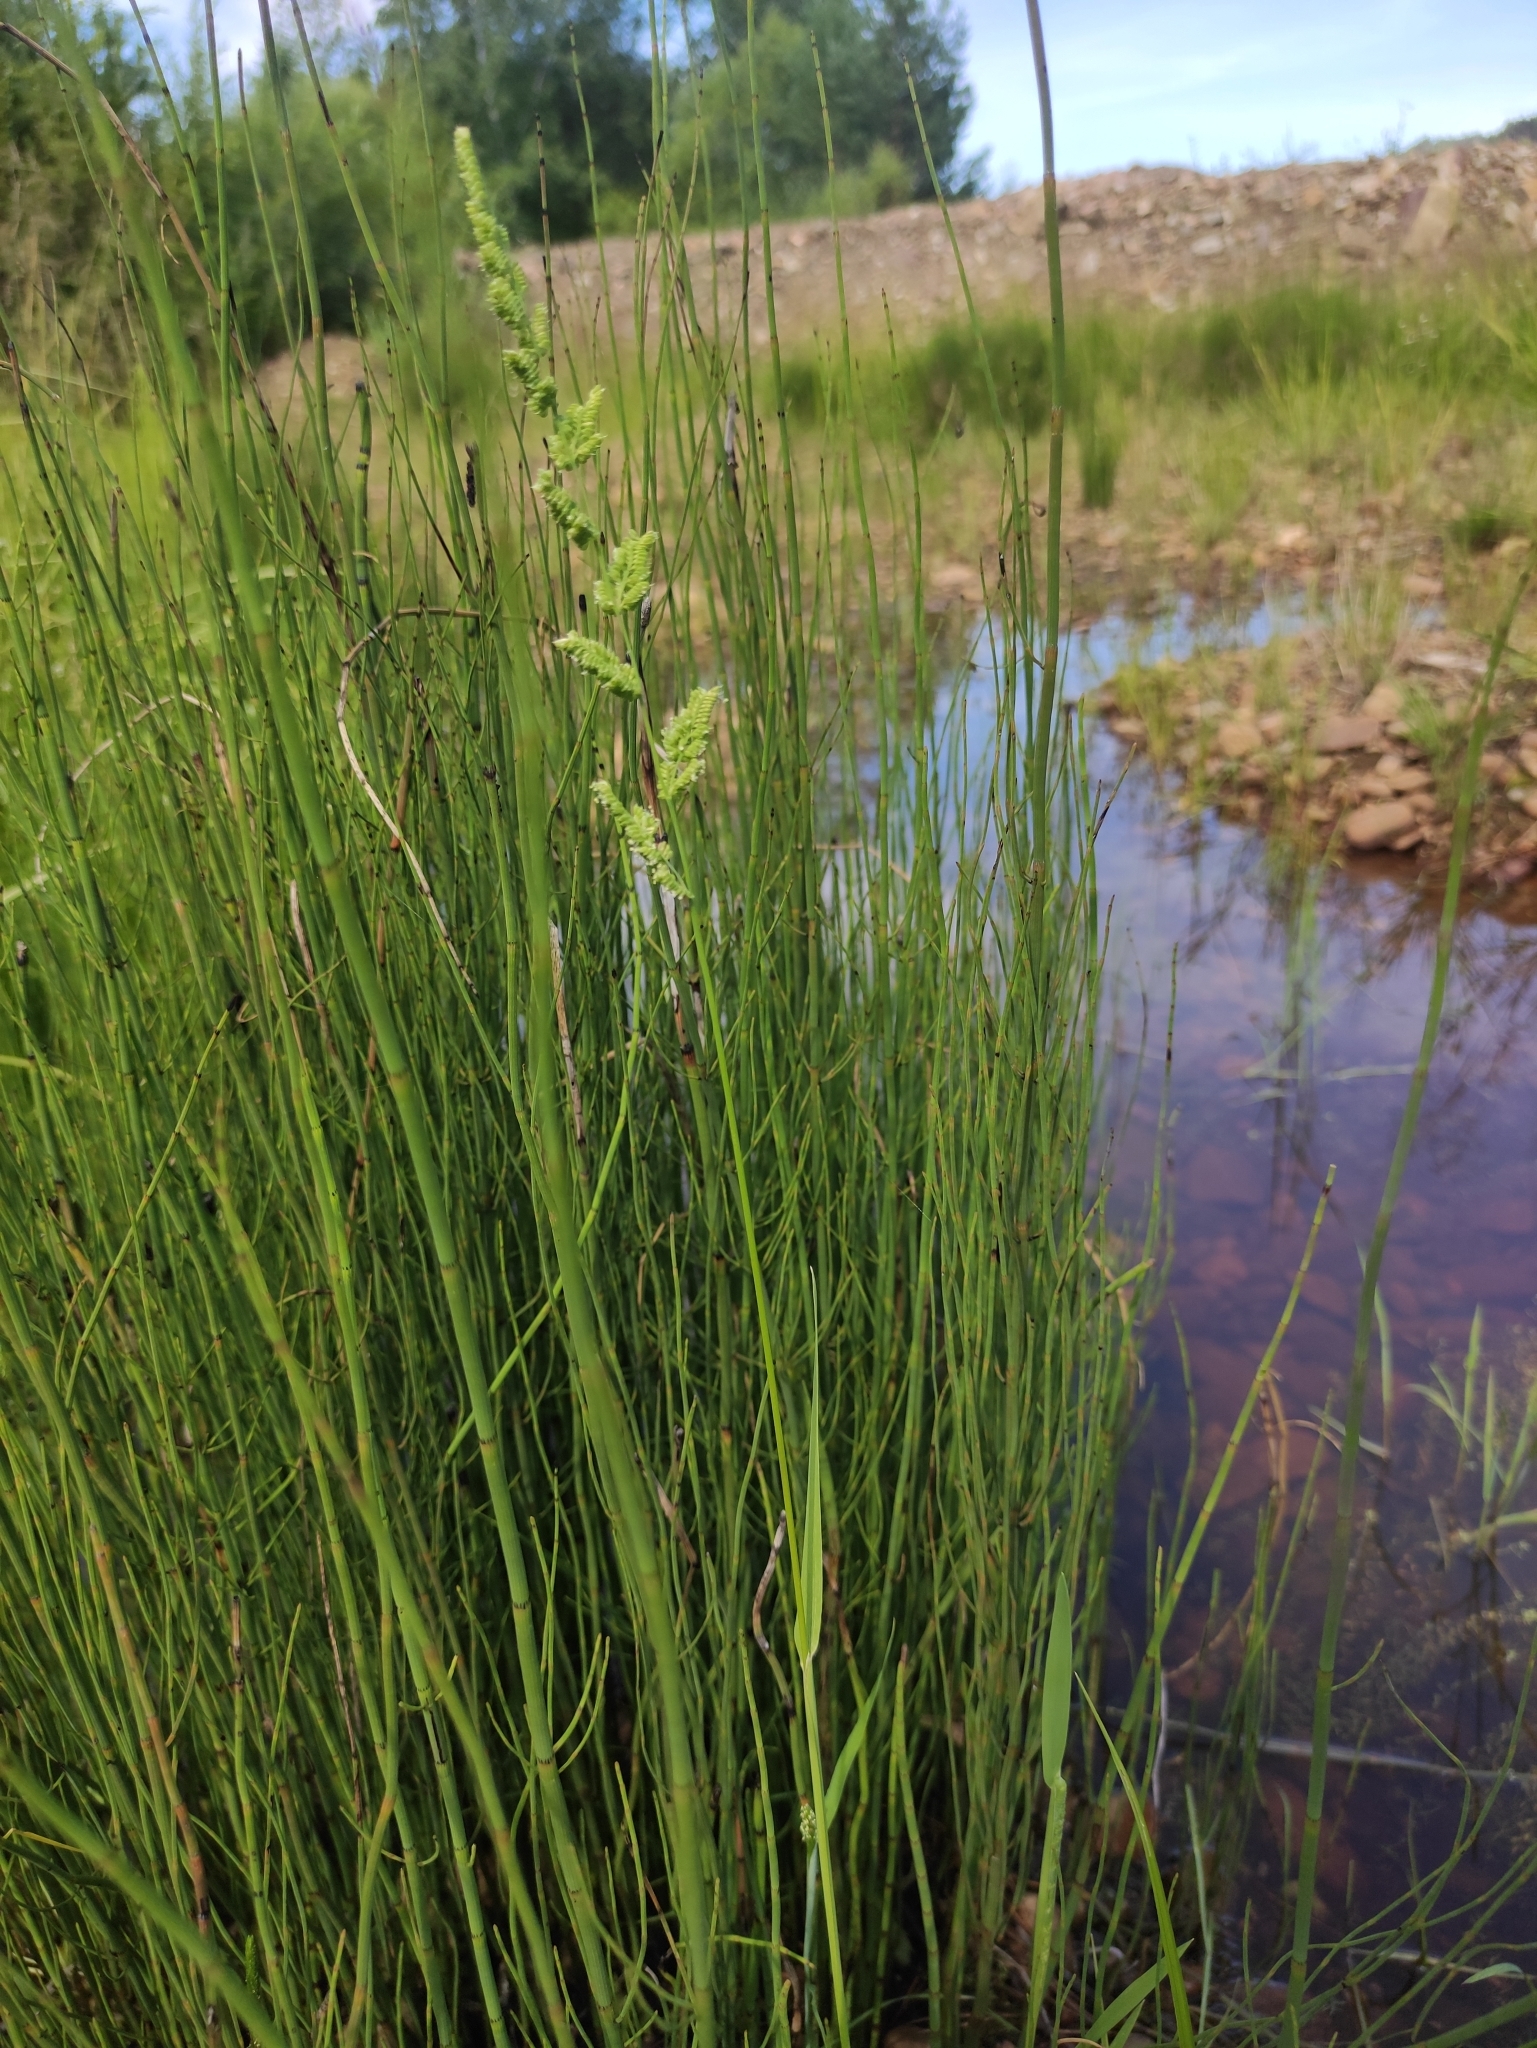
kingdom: Plantae
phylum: Tracheophyta
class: Liliopsida
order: Poales
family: Poaceae
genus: Beckmannia
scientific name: Beckmannia syzigachne
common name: American slough-grass
